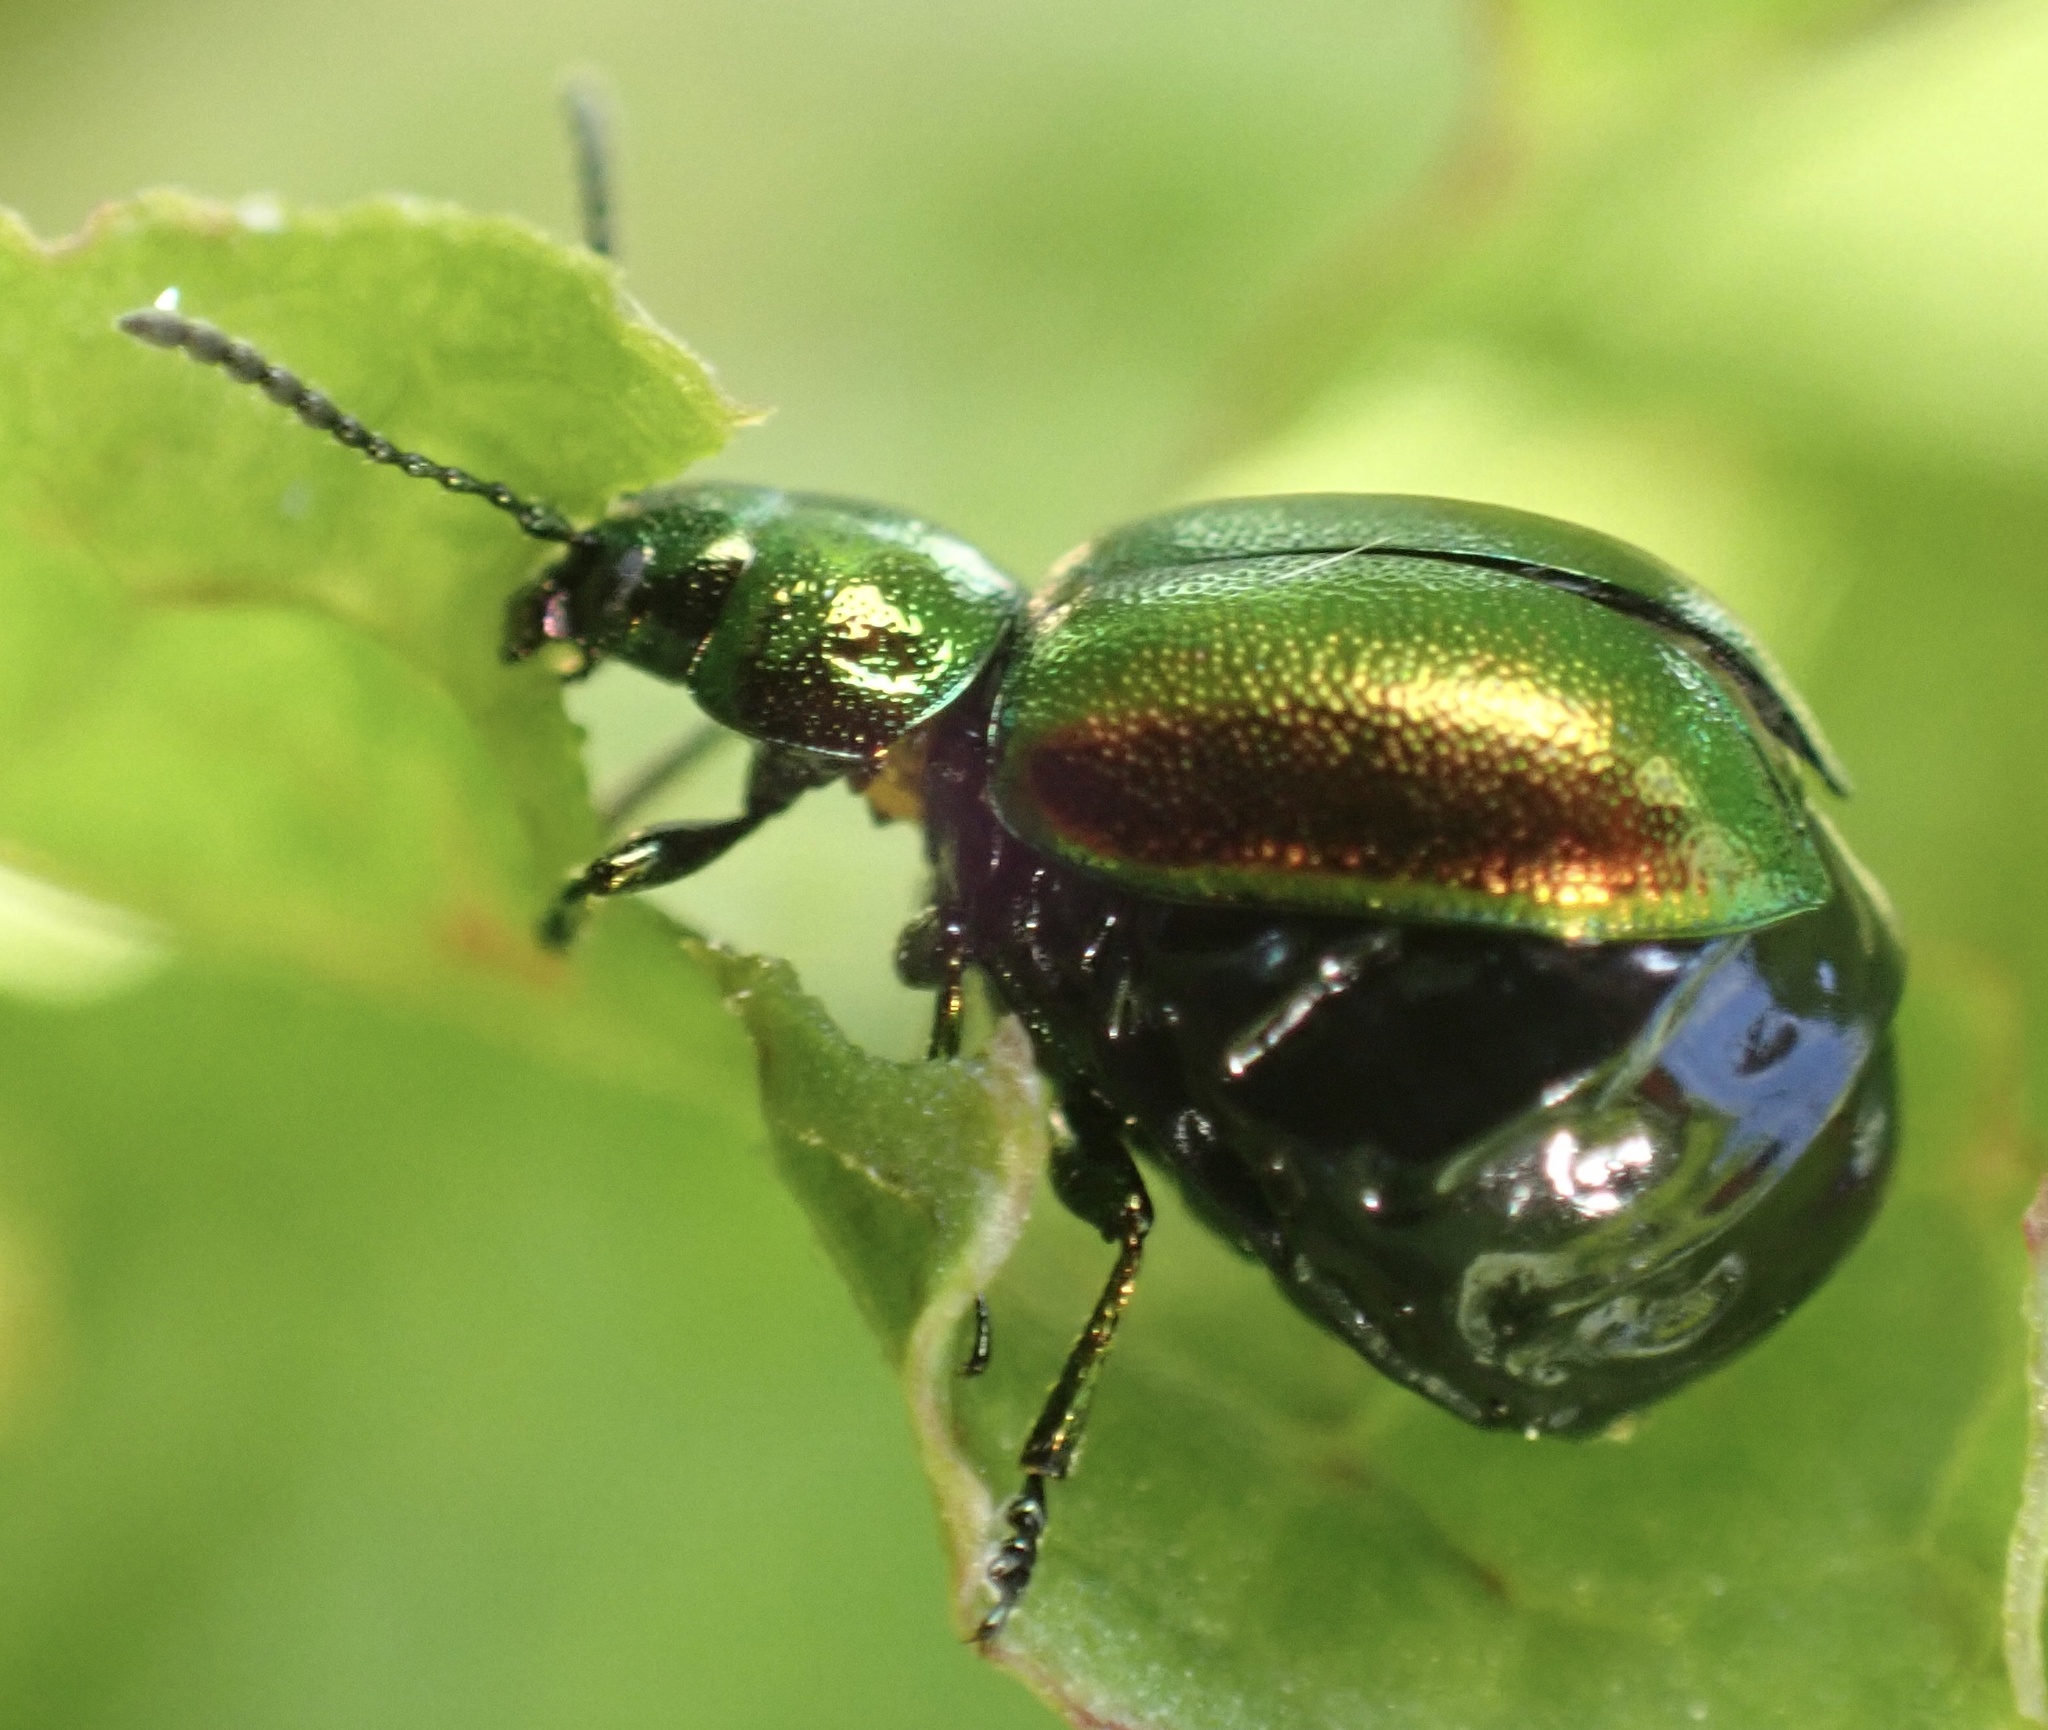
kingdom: Animalia
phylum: Arthropoda
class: Insecta
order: Coleoptera
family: Chrysomelidae
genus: Gastrophysa
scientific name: Gastrophysa viridula
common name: Green dock beetle
